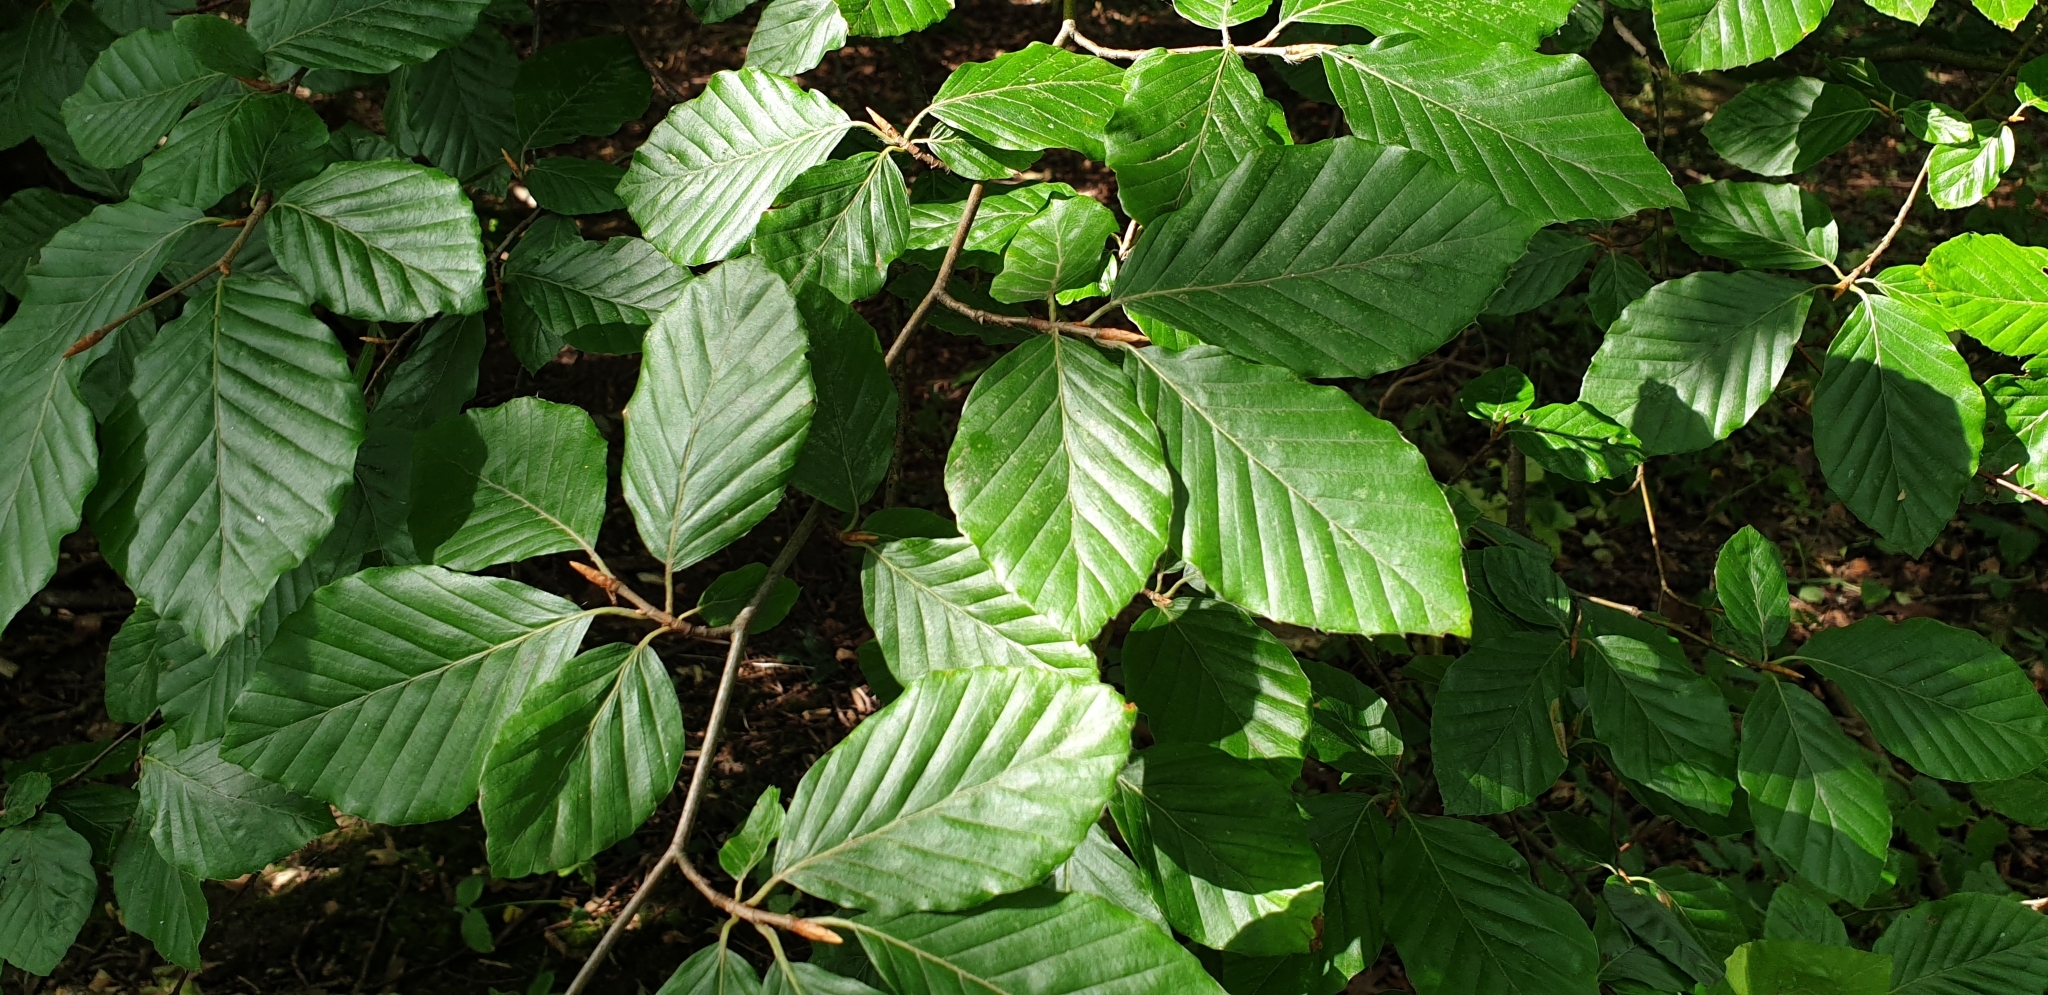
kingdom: Plantae
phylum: Tracheophyta
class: Magnoliopsida
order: Fagales
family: Fagaceae
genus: Fagus
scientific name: Fagus sylvatica
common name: Beech
